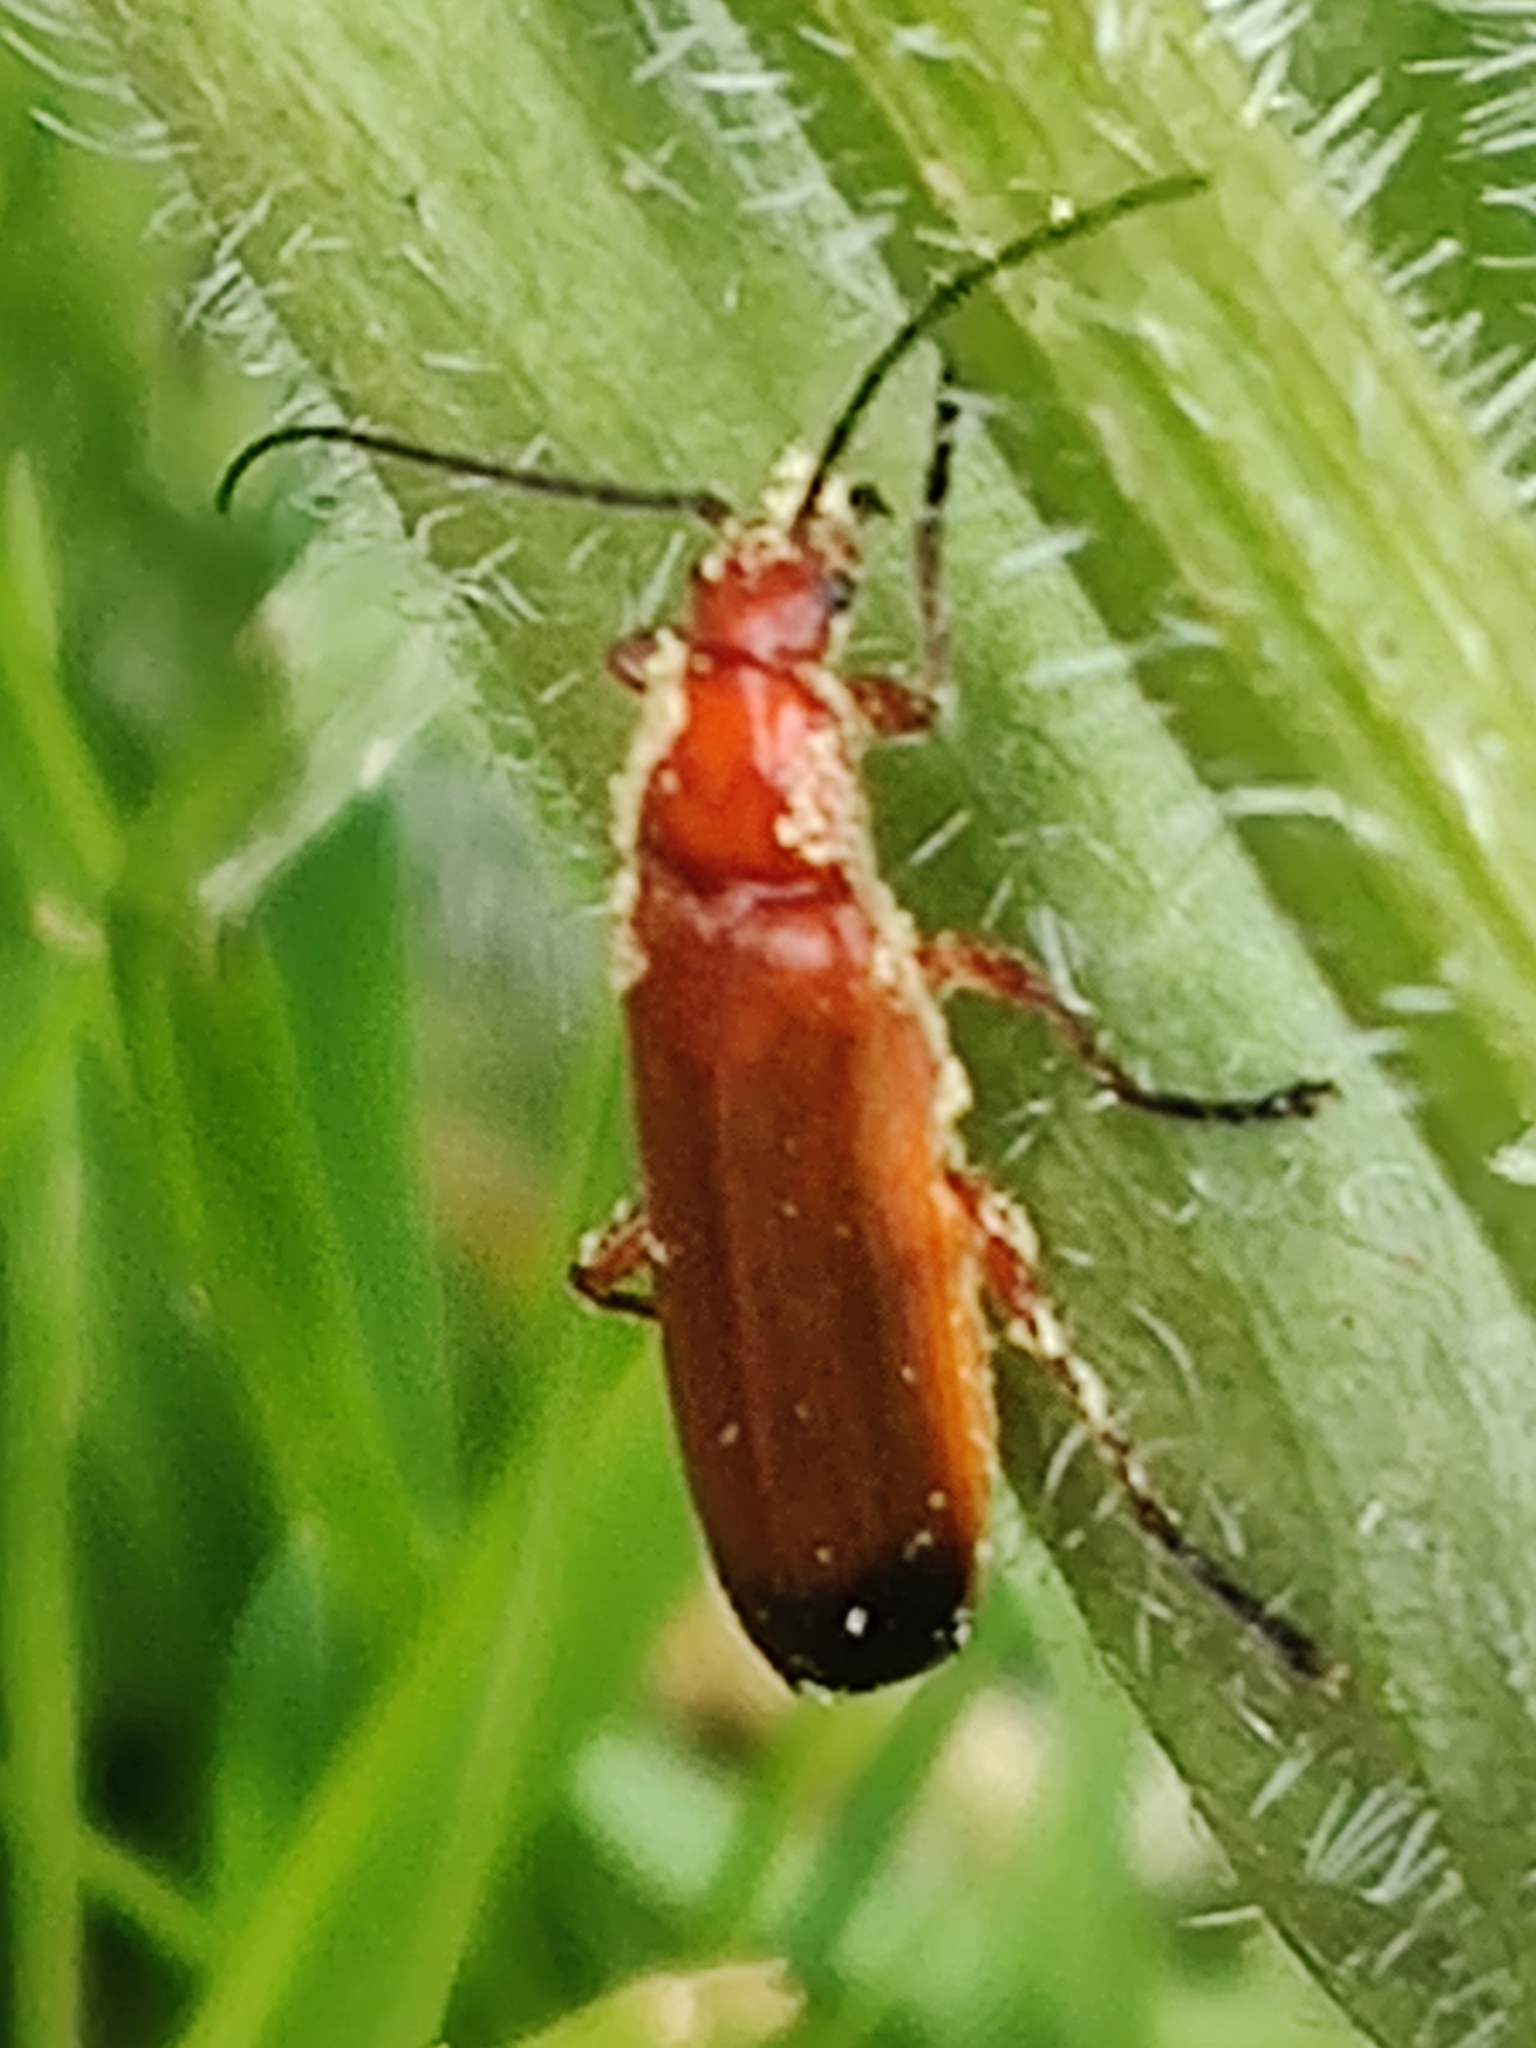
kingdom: Animalia
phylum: Arthropoda
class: Insecta
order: Coleoptera
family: Cantharidae
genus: Rhagonycha
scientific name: Rhagonycha fulva
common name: Common red soldier beetle
